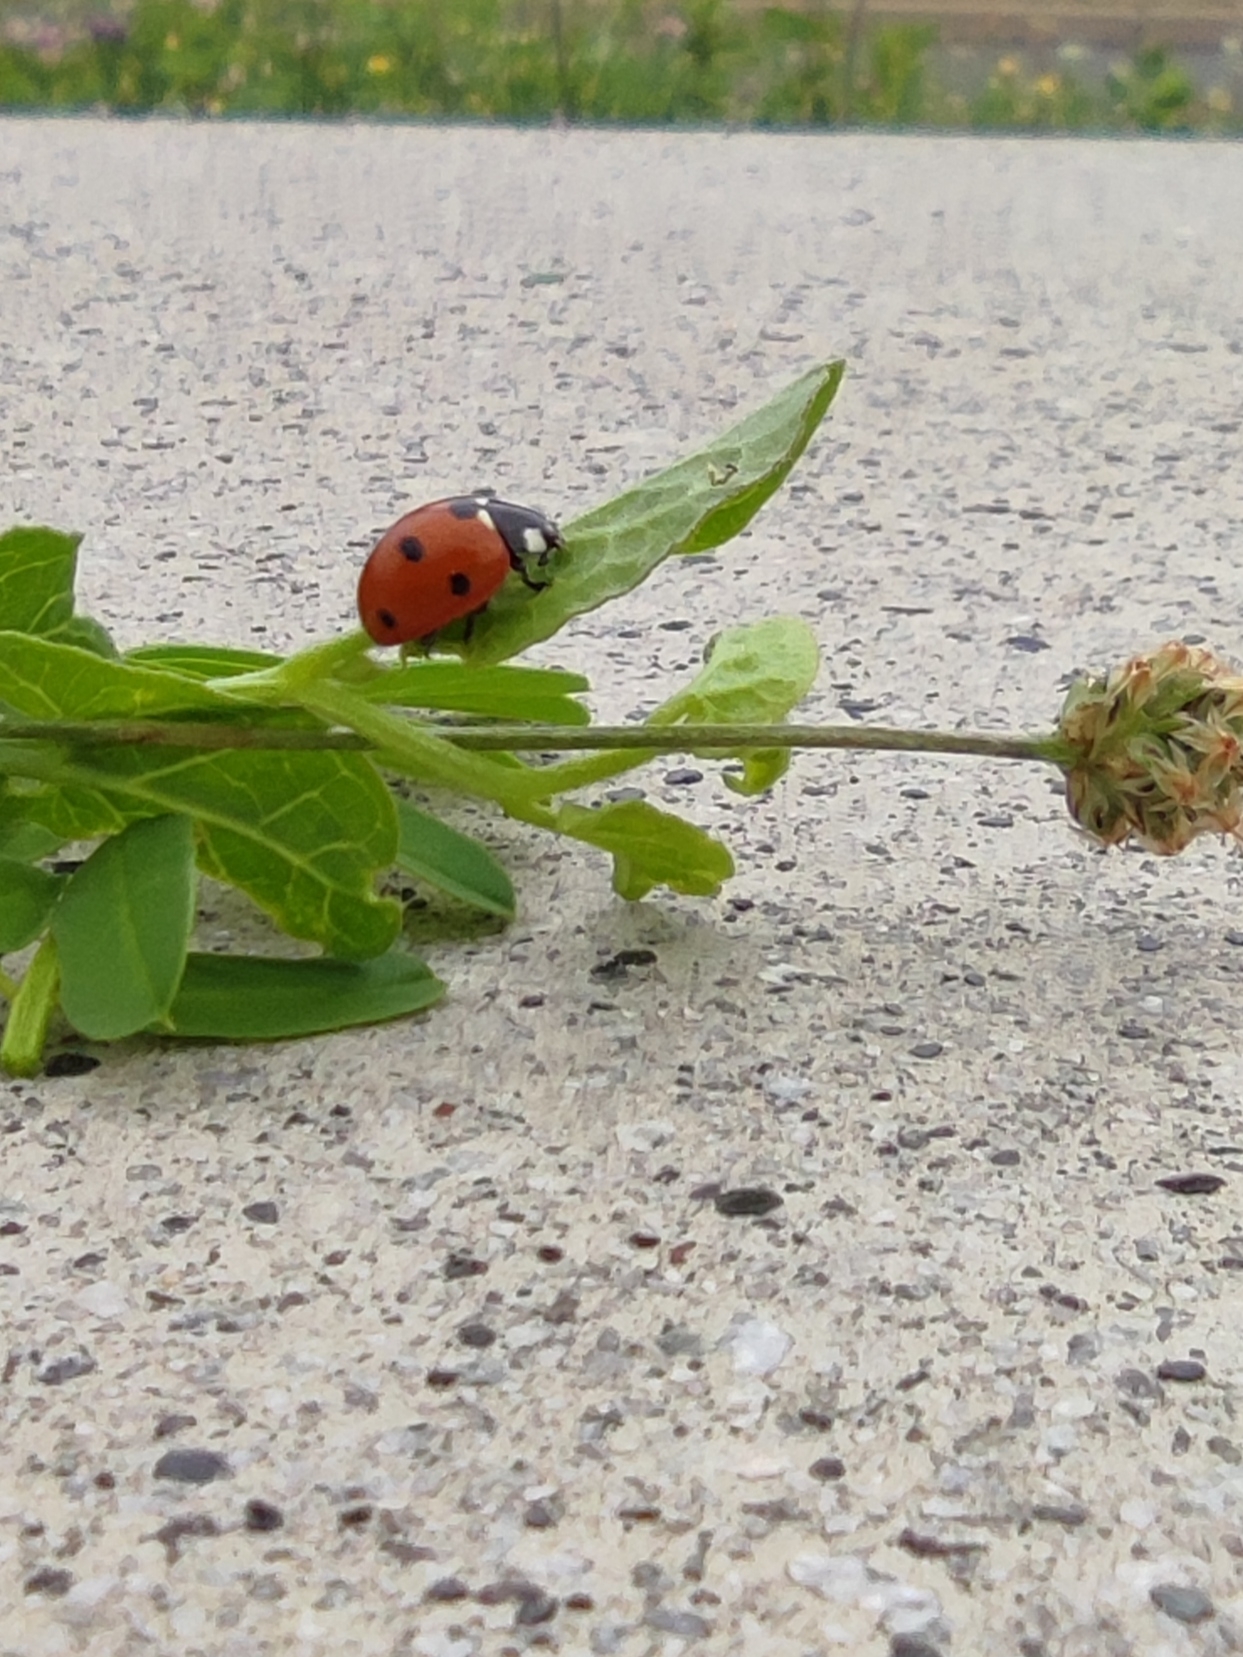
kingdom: Animalia
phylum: Arthropoda
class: Insecta
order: Coleoptera
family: Coccinellidae
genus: Coccinella
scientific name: Coccinella septempunctata
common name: Sevenspotted lady beetle
